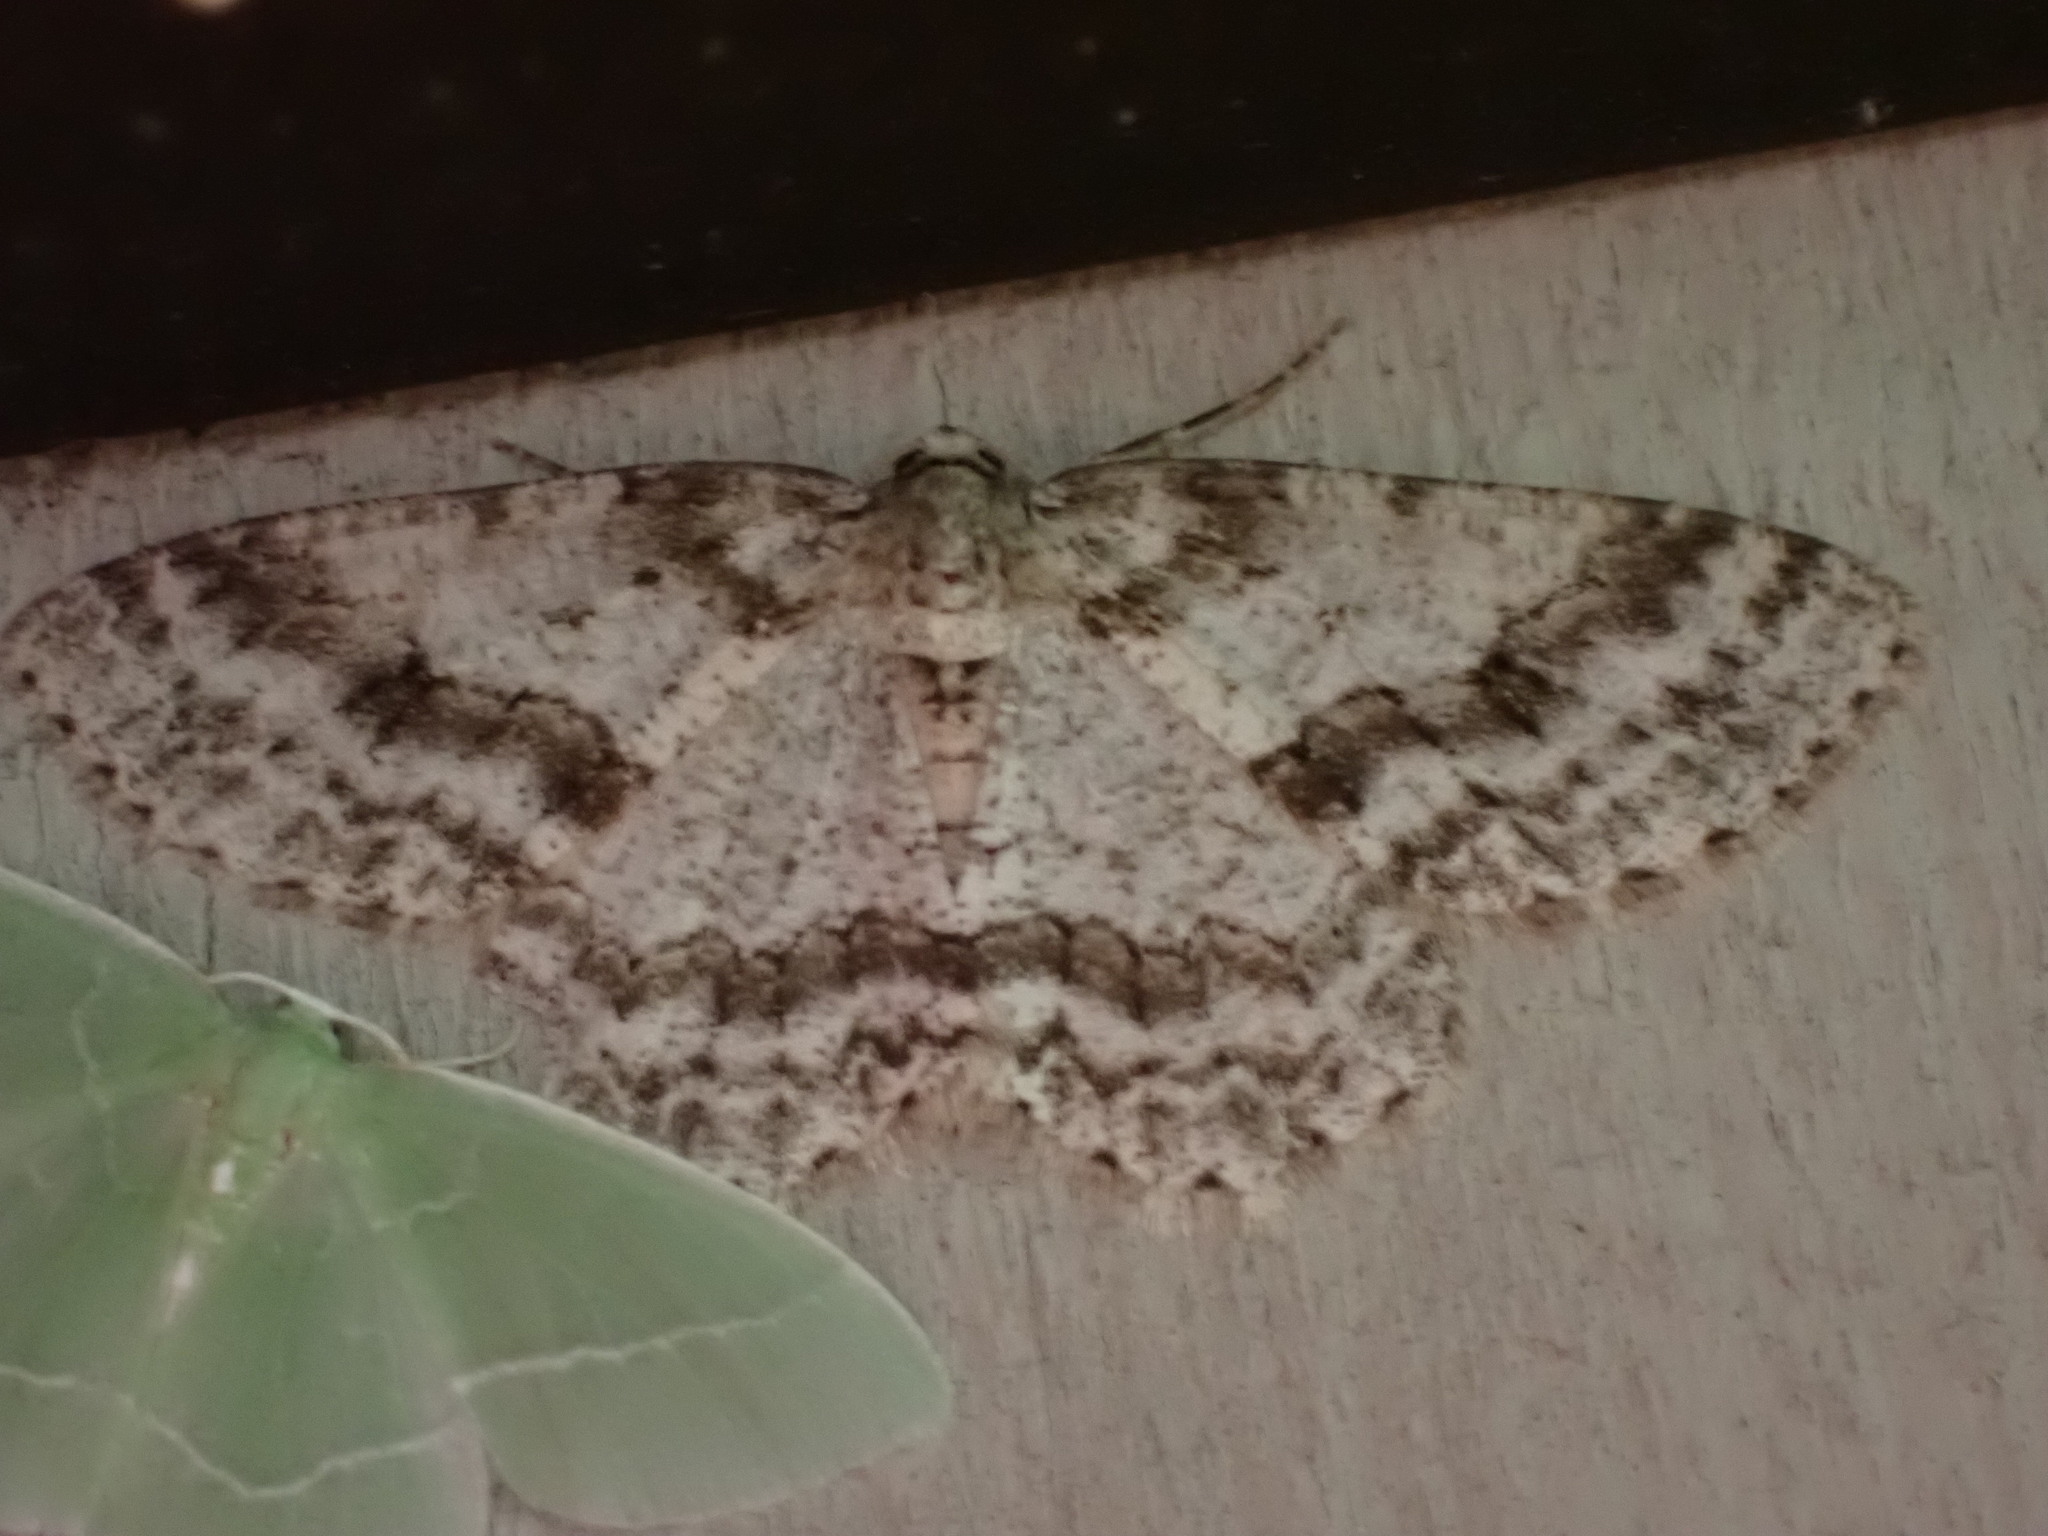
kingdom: Animalia
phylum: Arthropoda
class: Insecta
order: Lepidoptera
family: Geometridae
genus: Ectropis
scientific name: Ectropis crepuscularia
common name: Engrailed
